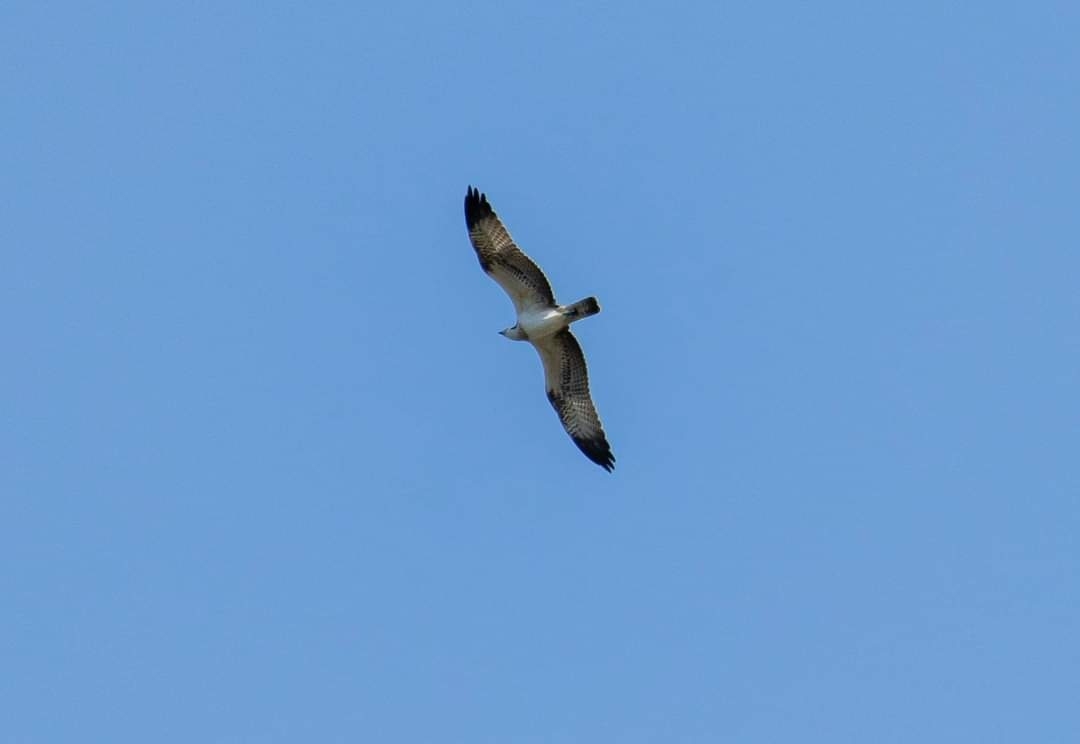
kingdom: Animalia
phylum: Chordata
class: Aves
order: Accipitriformes
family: Pandionidae
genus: Pandion
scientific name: Pandion haliaetus
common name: Osprey
